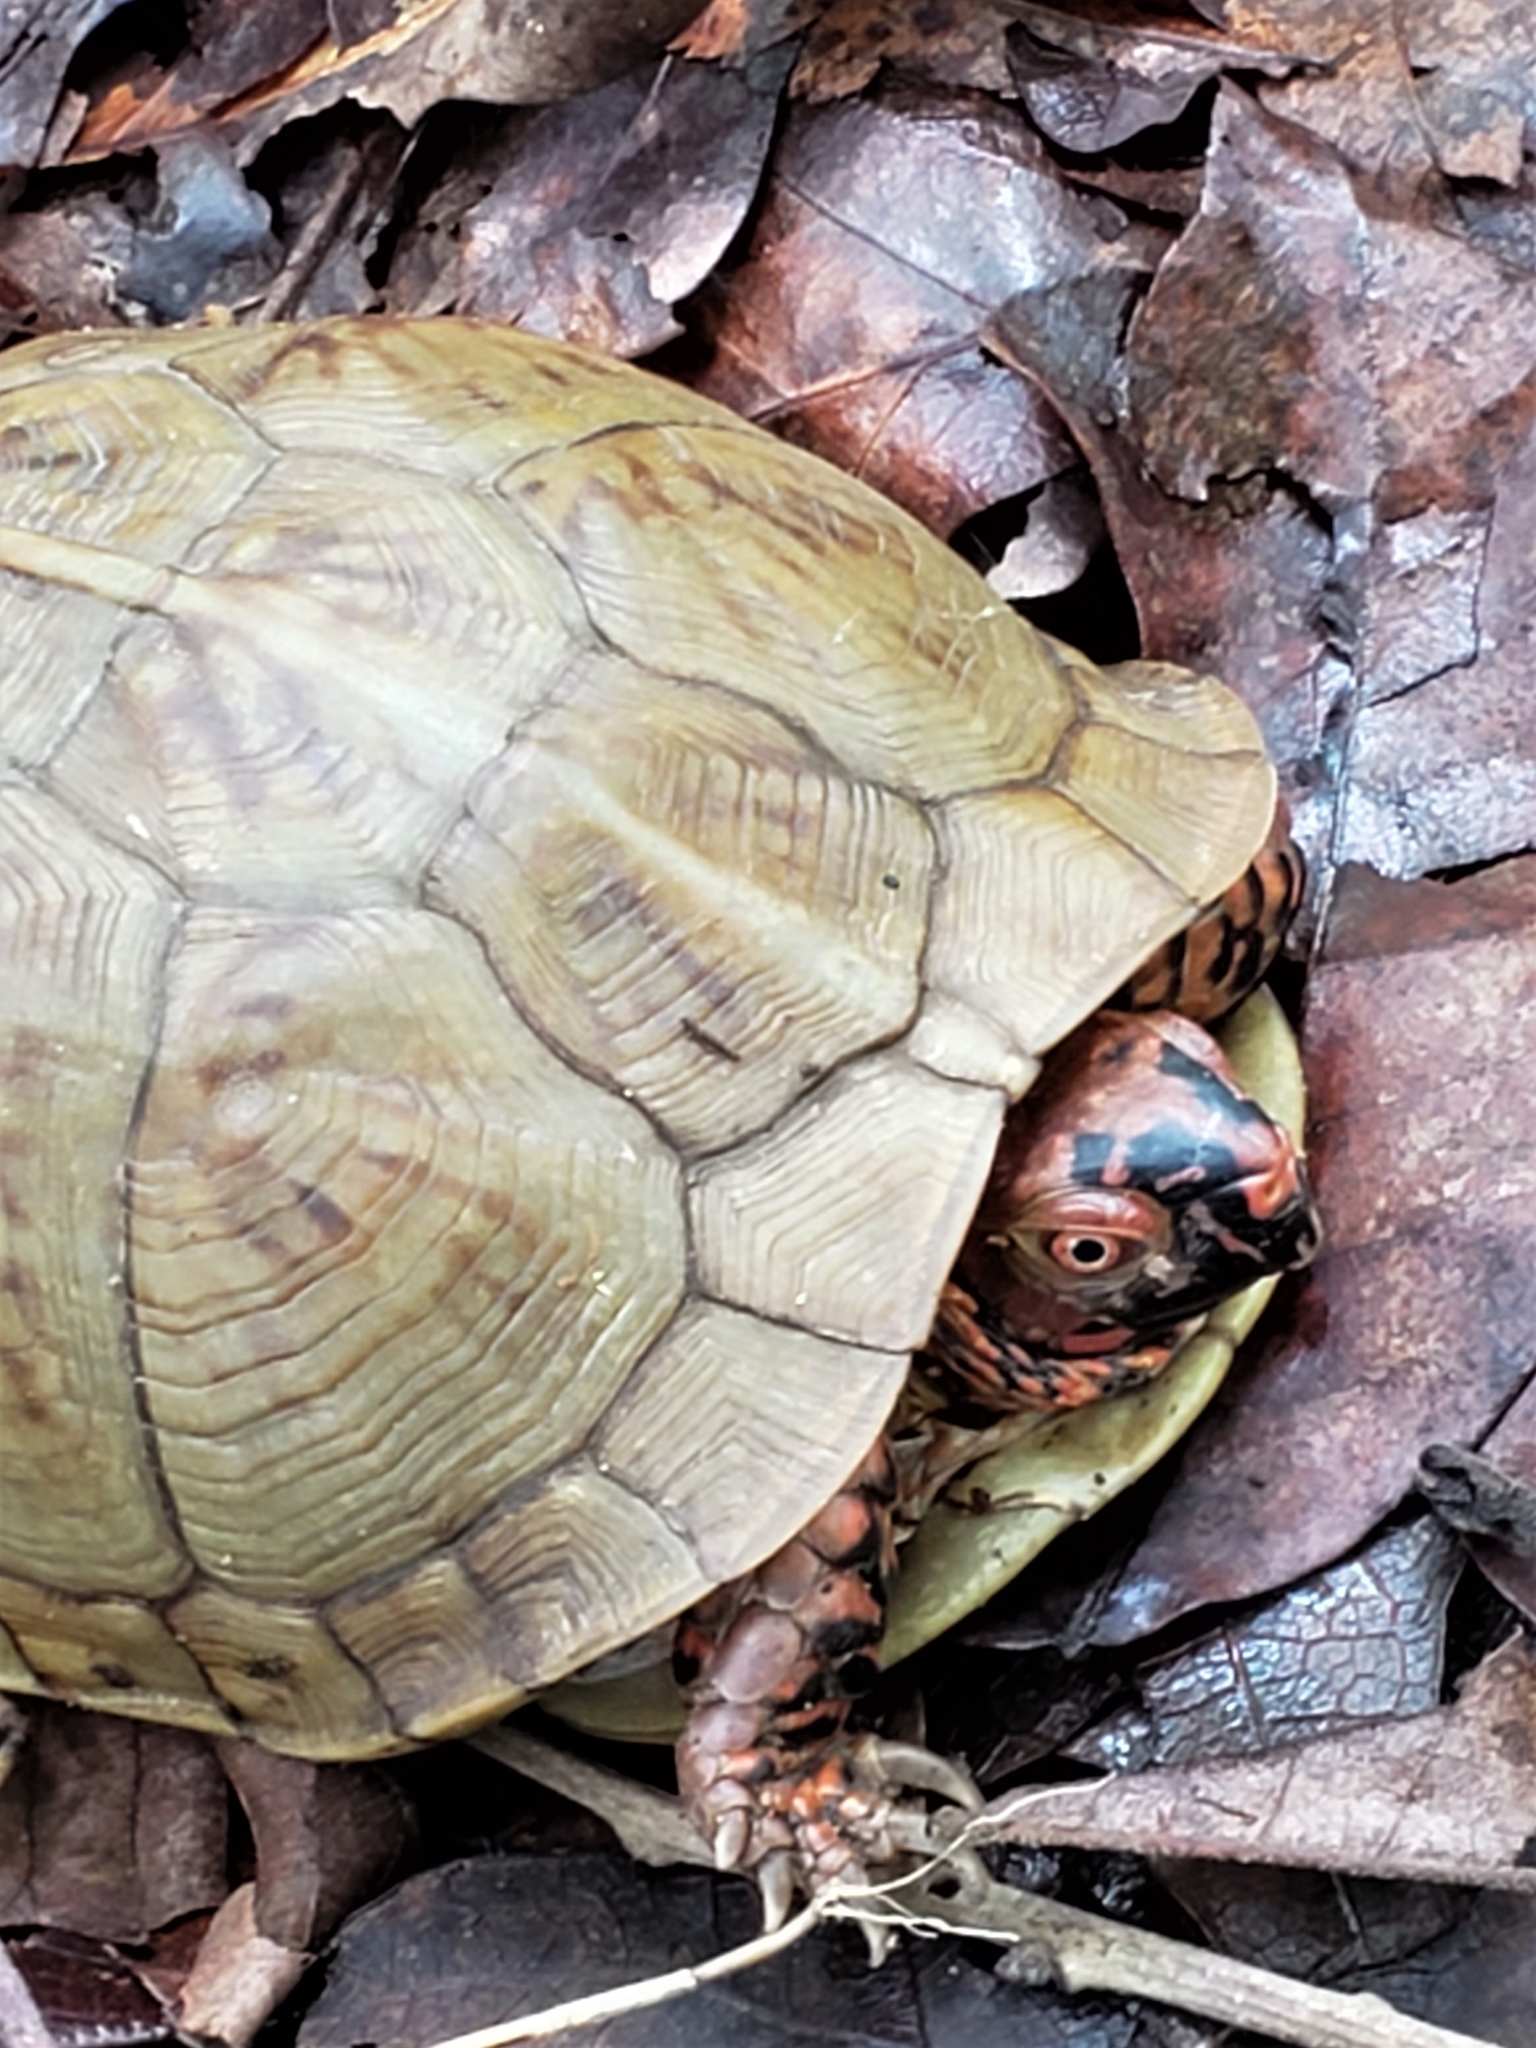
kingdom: Animalia
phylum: Chordata
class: Testudines
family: Emydidae
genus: Terrapene
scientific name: Terrapene carolina
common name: Common box turtle
